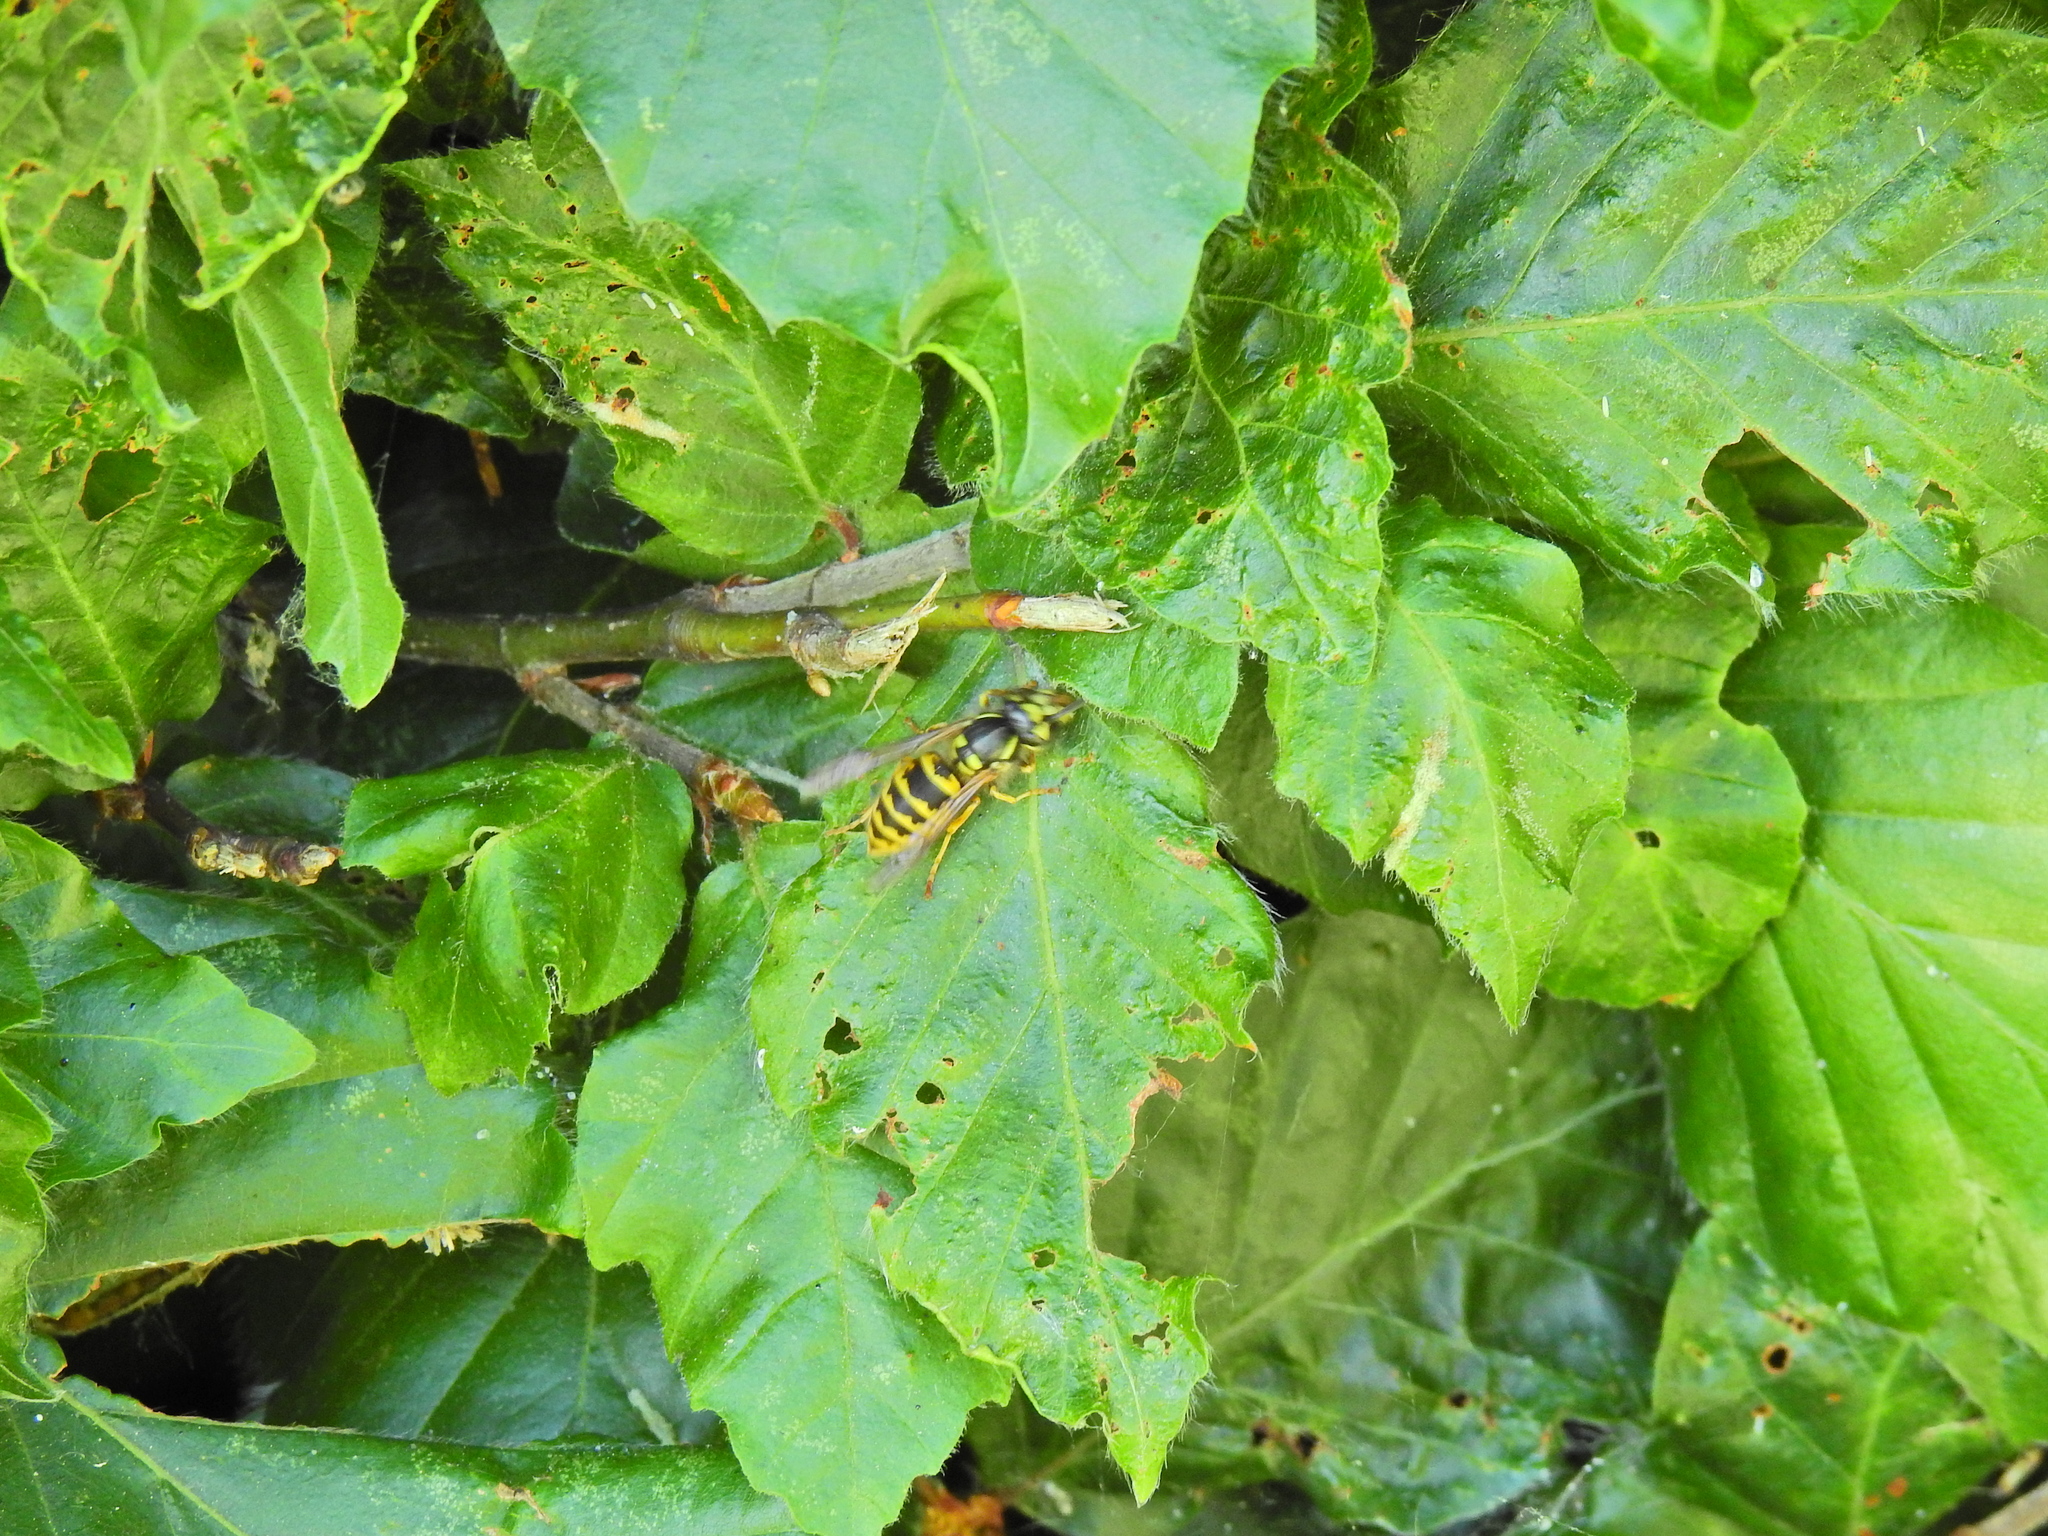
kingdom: Animalia
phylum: Arthropoda
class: Insecta
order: Hymenoptera
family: Vespidae
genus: Vespula
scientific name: Vespula vulgaris
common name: Common wasp
